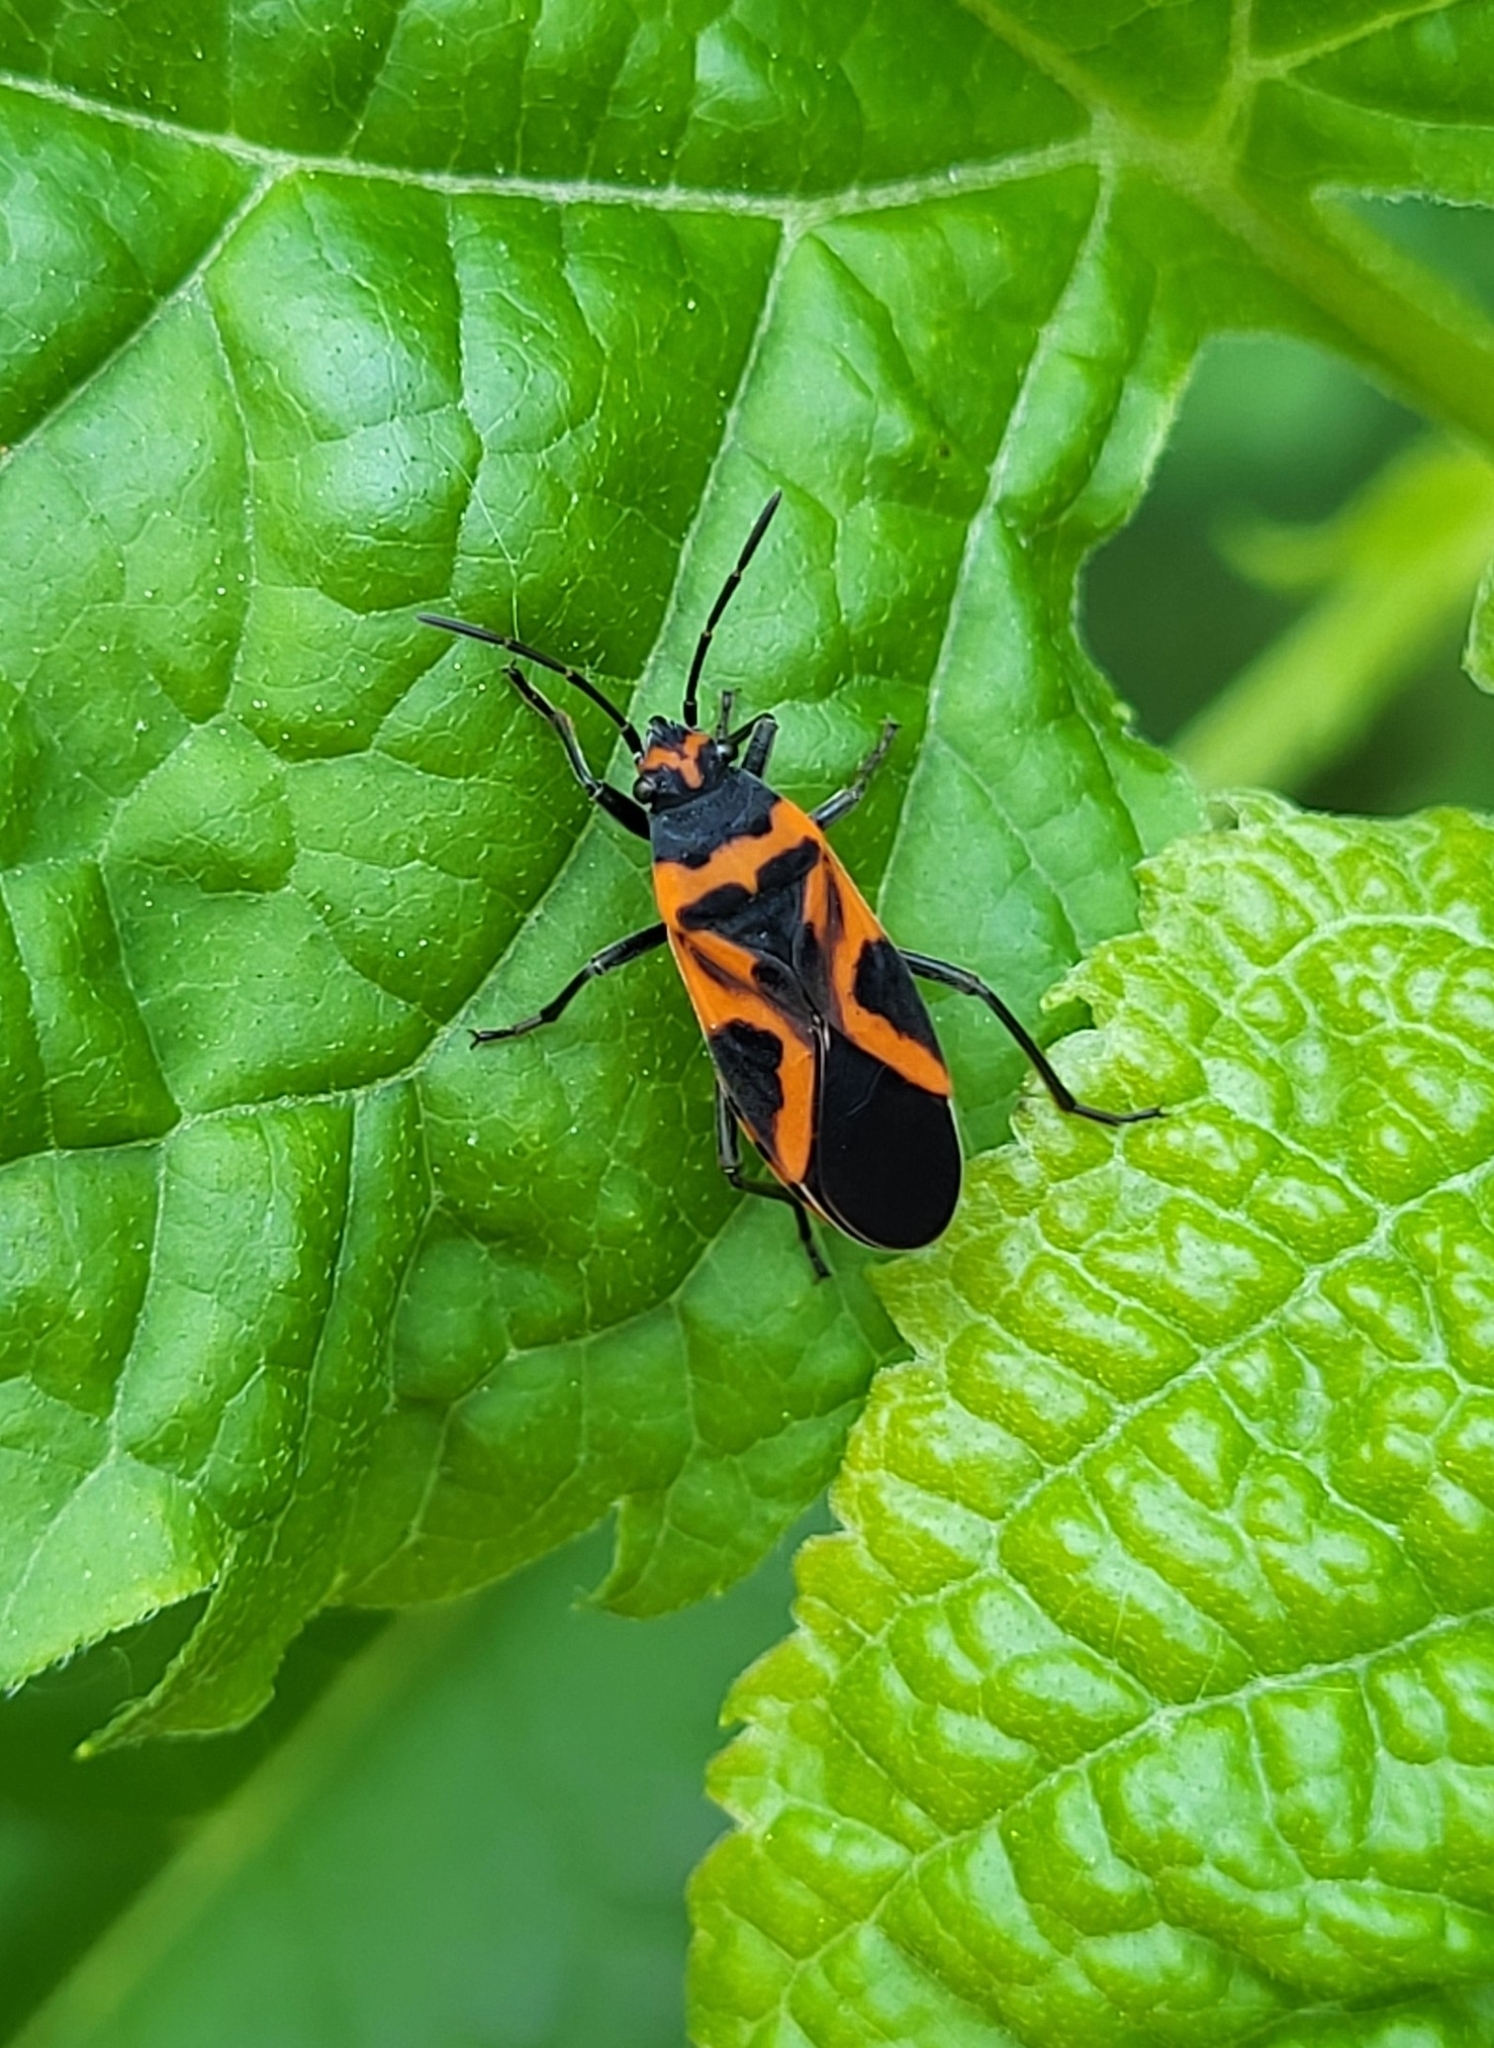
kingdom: Animalia
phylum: Arthropoda
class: Insecta
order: Hemiptera
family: Lygaeidae
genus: Lygaeus
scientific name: Lygaeus turcicus
